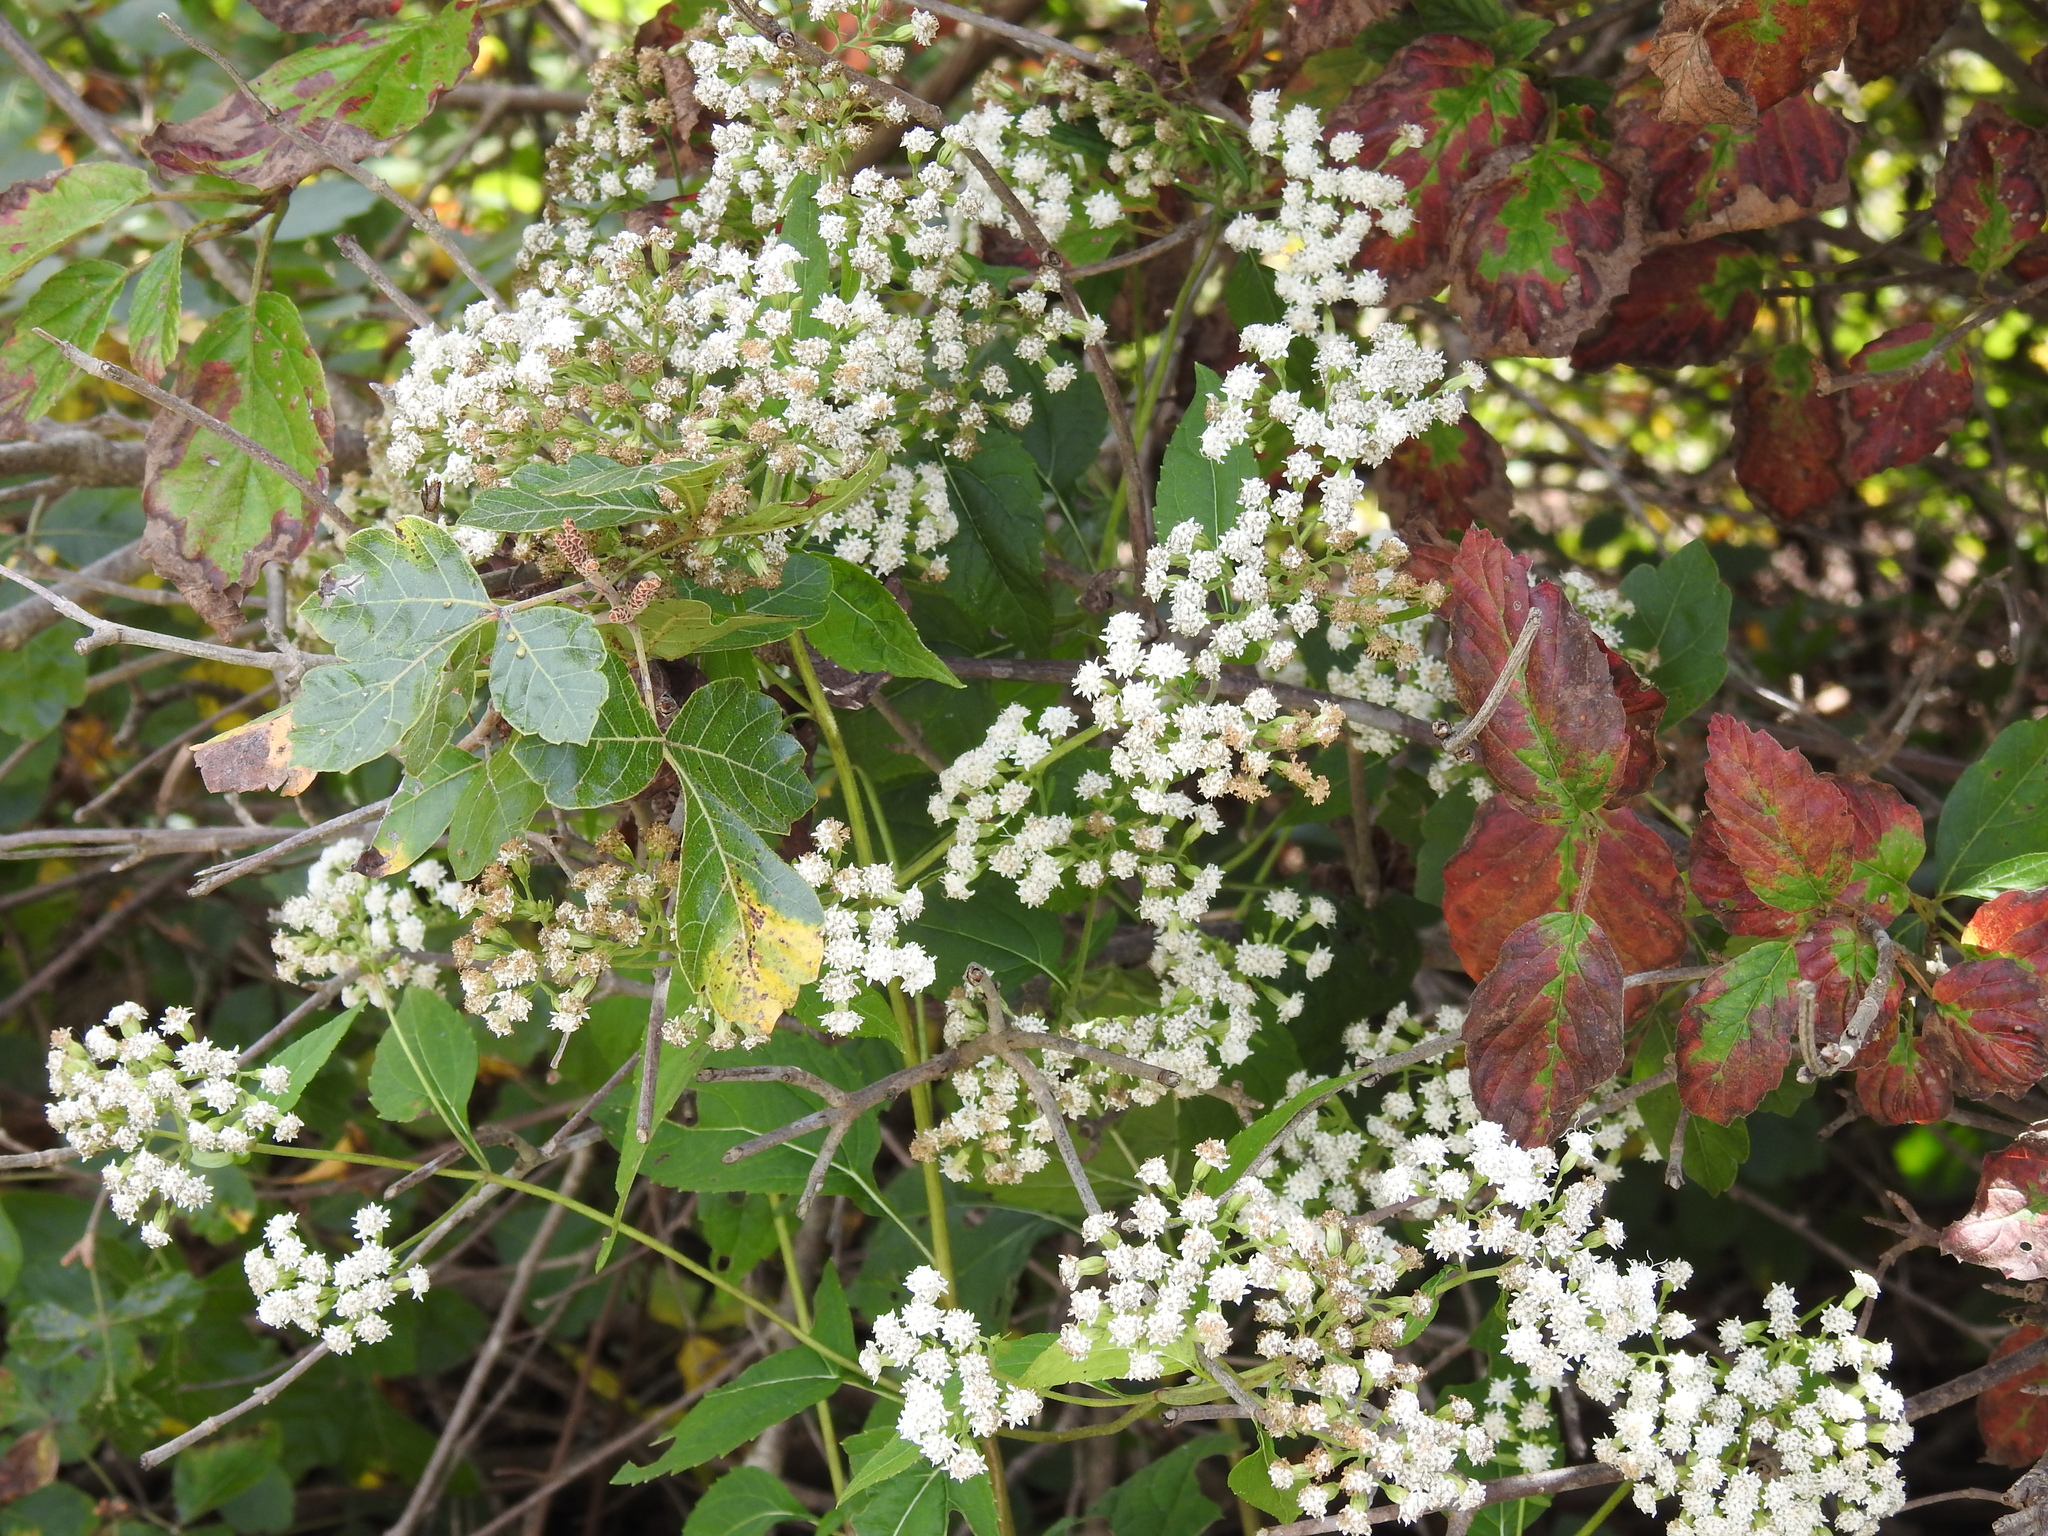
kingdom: Plantae
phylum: Tracheophyta
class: Magnoliopsida
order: Asterales
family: Asteraceae
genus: Ageratina
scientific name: Ageratina altissima
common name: White snakeroot
